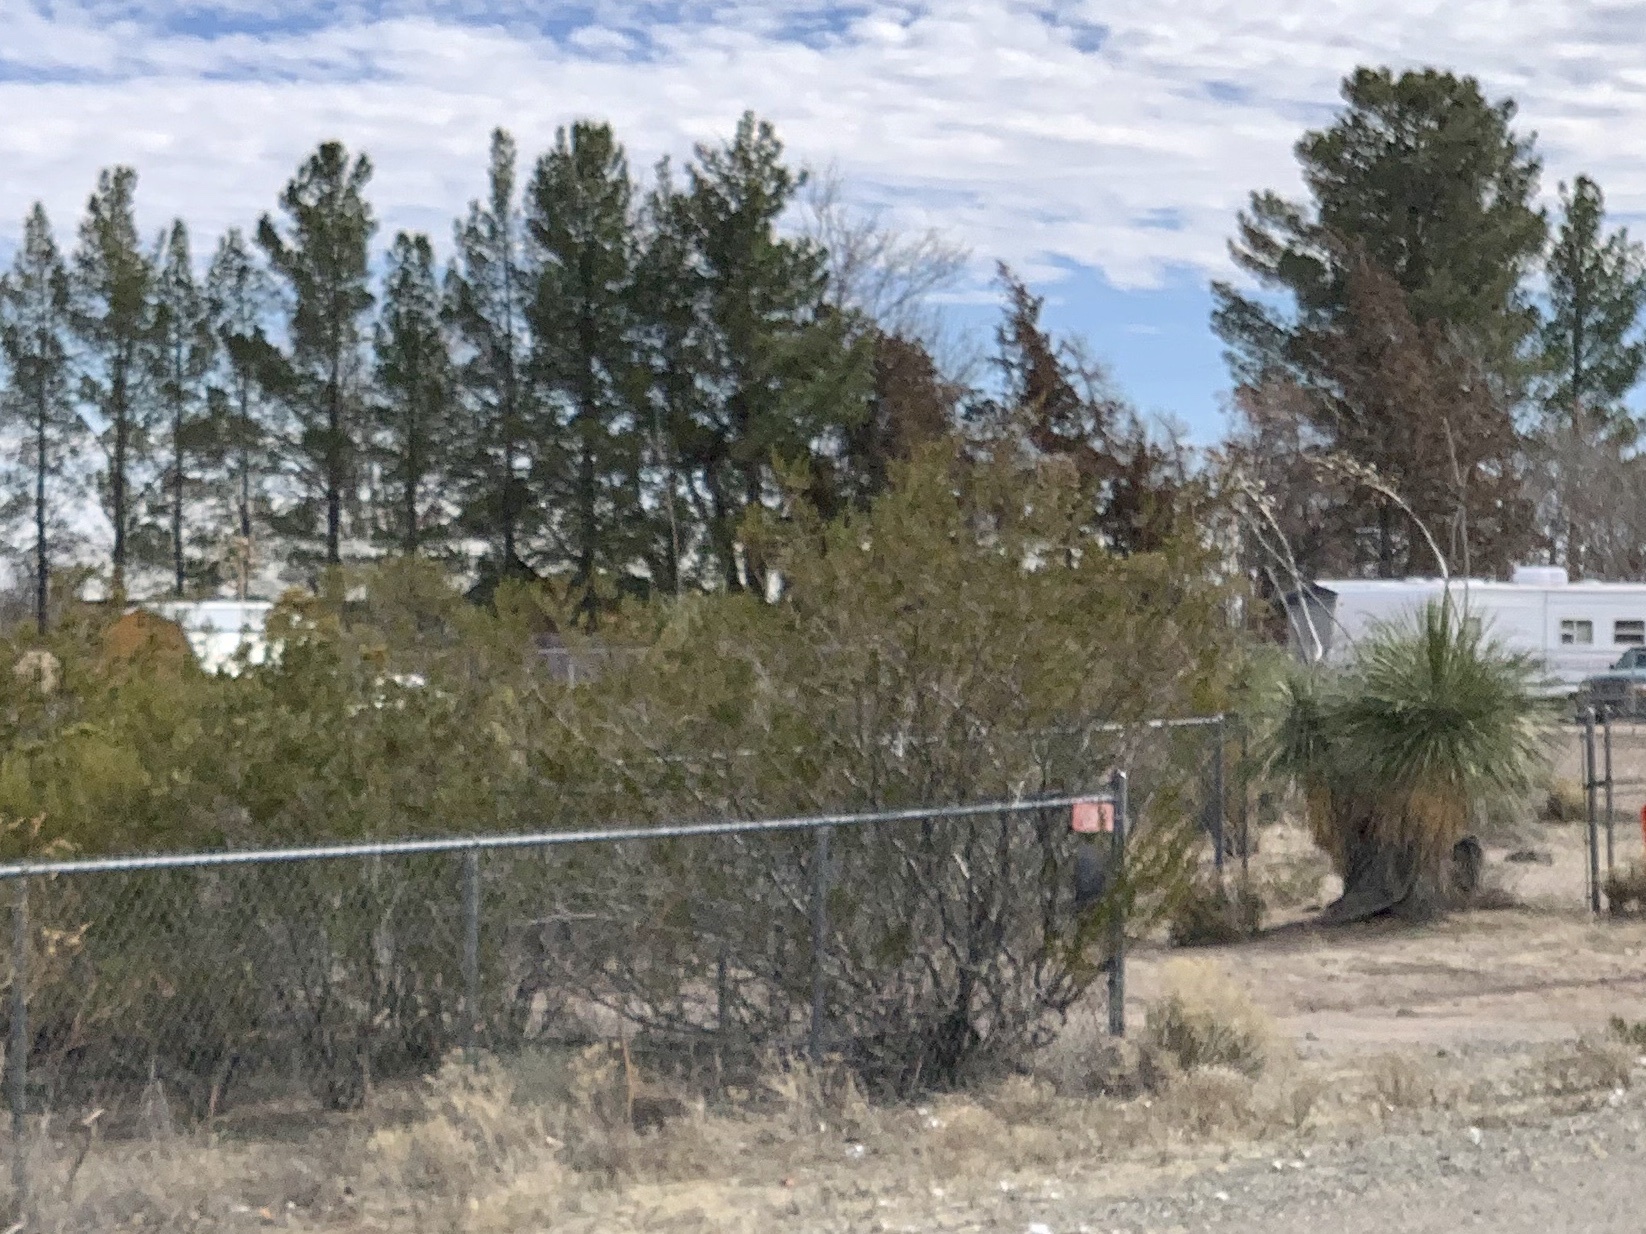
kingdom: Plantae
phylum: Tracheophyta
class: Magnoliopsida
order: Zygophyllales
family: Zygophyllaceae
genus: Larrea
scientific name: Larrea tridentata
